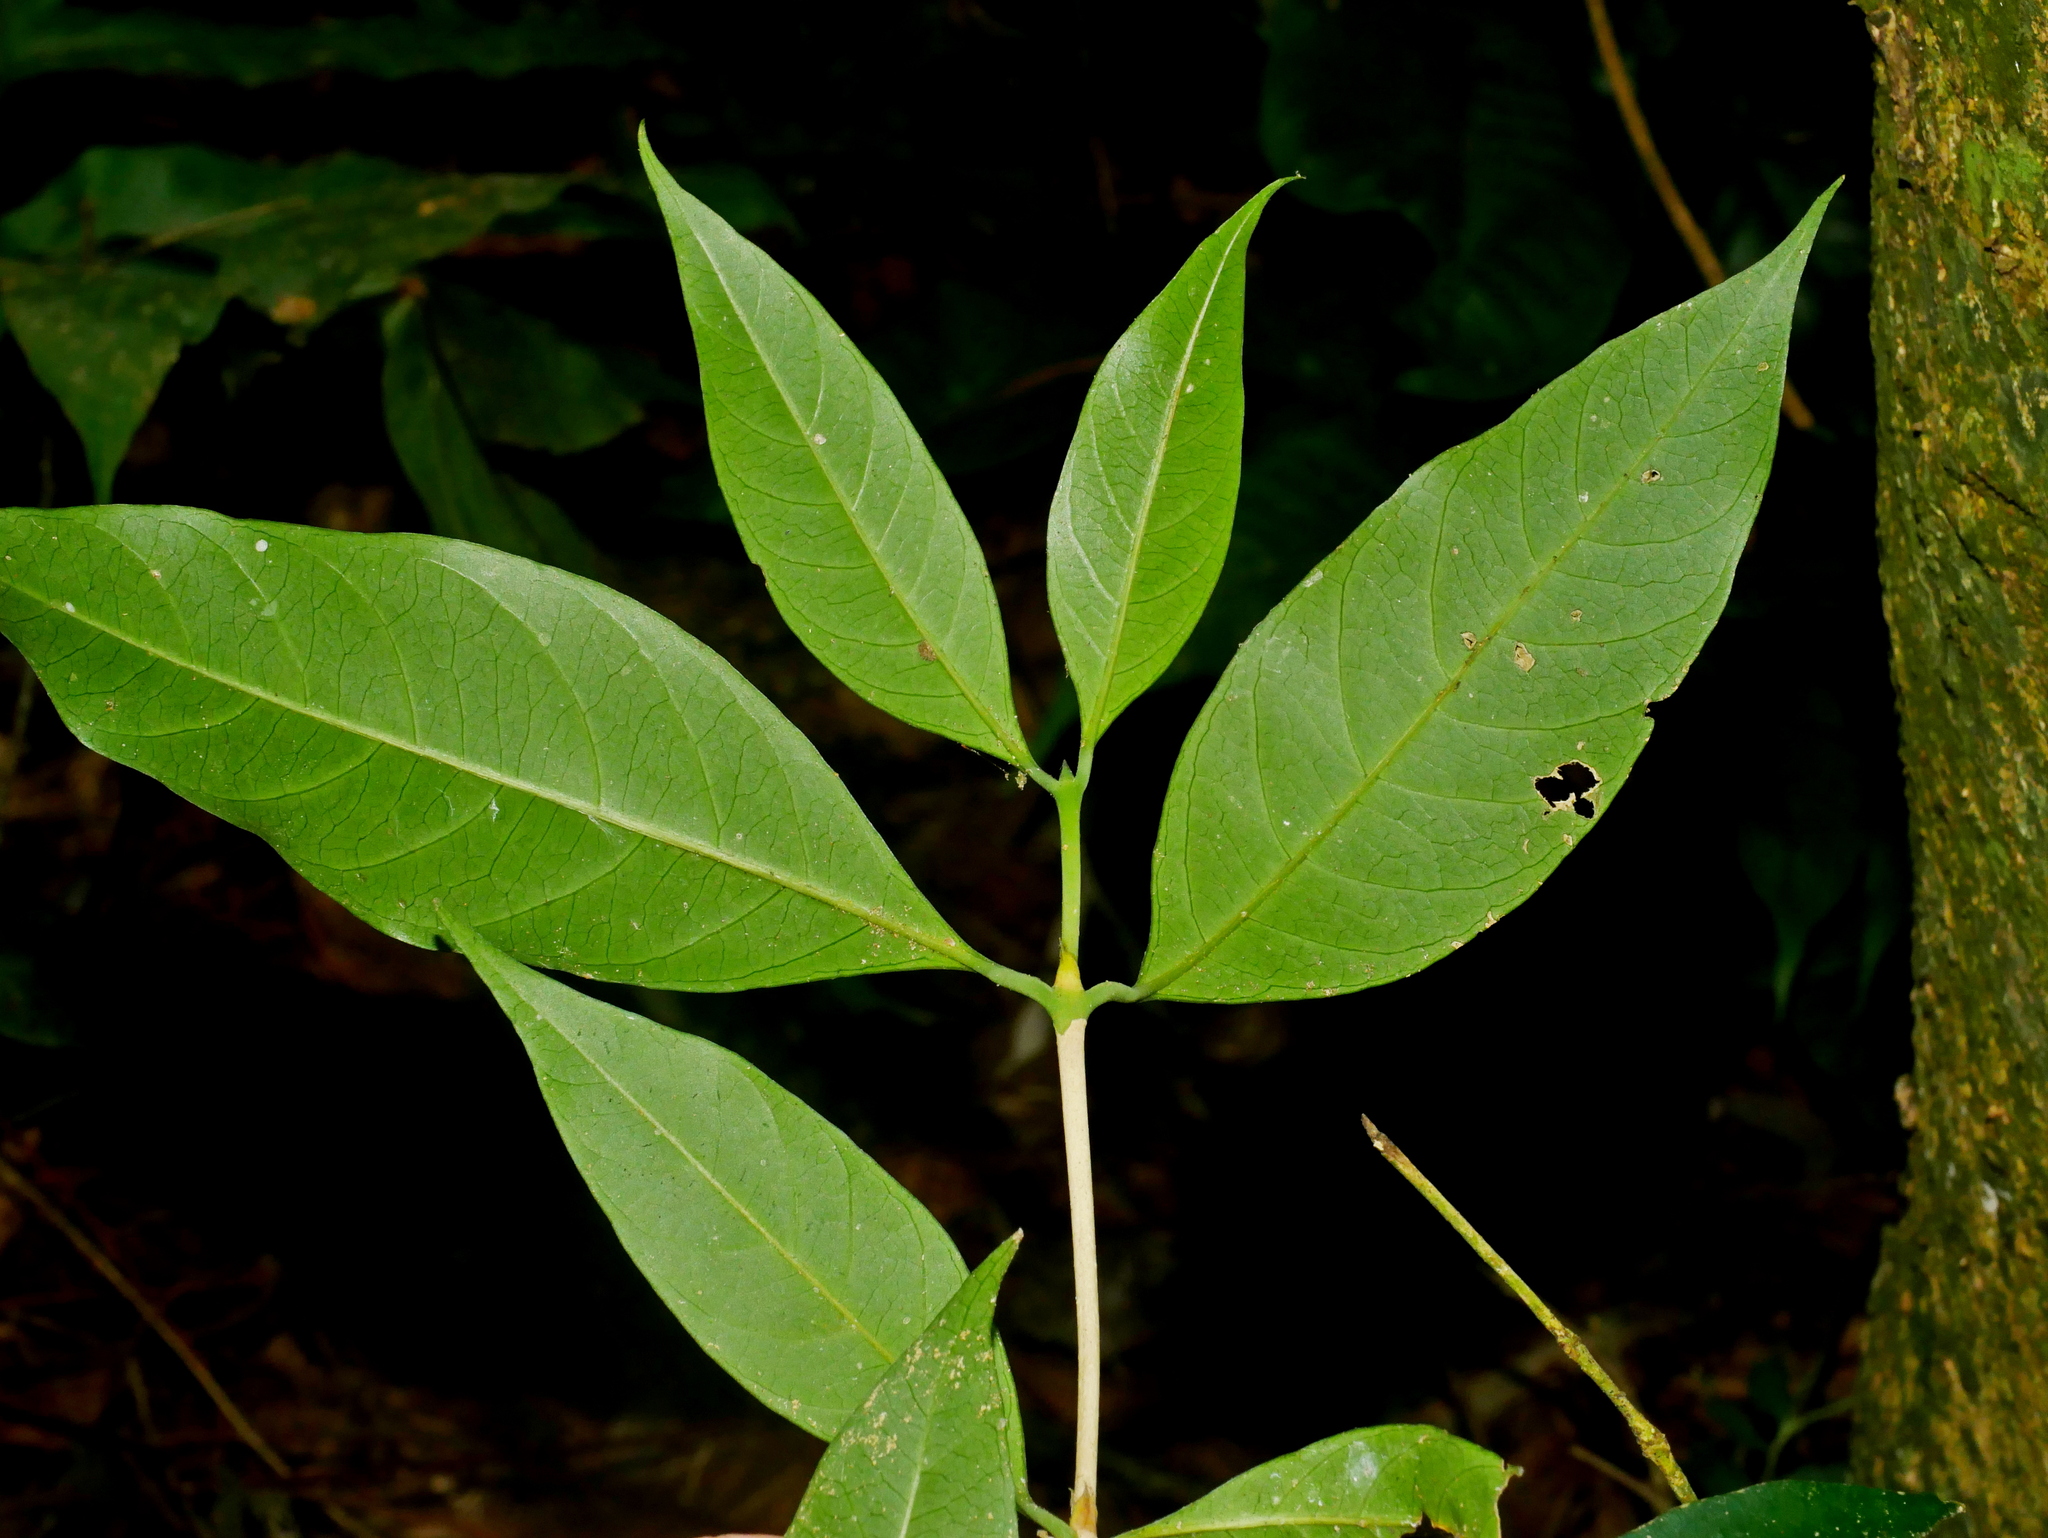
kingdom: Plantae
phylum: Tracheophyta
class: Magnoliopsida
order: Gentianales
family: Rubiaceae
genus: Diplospora
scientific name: Diplospora dubia
